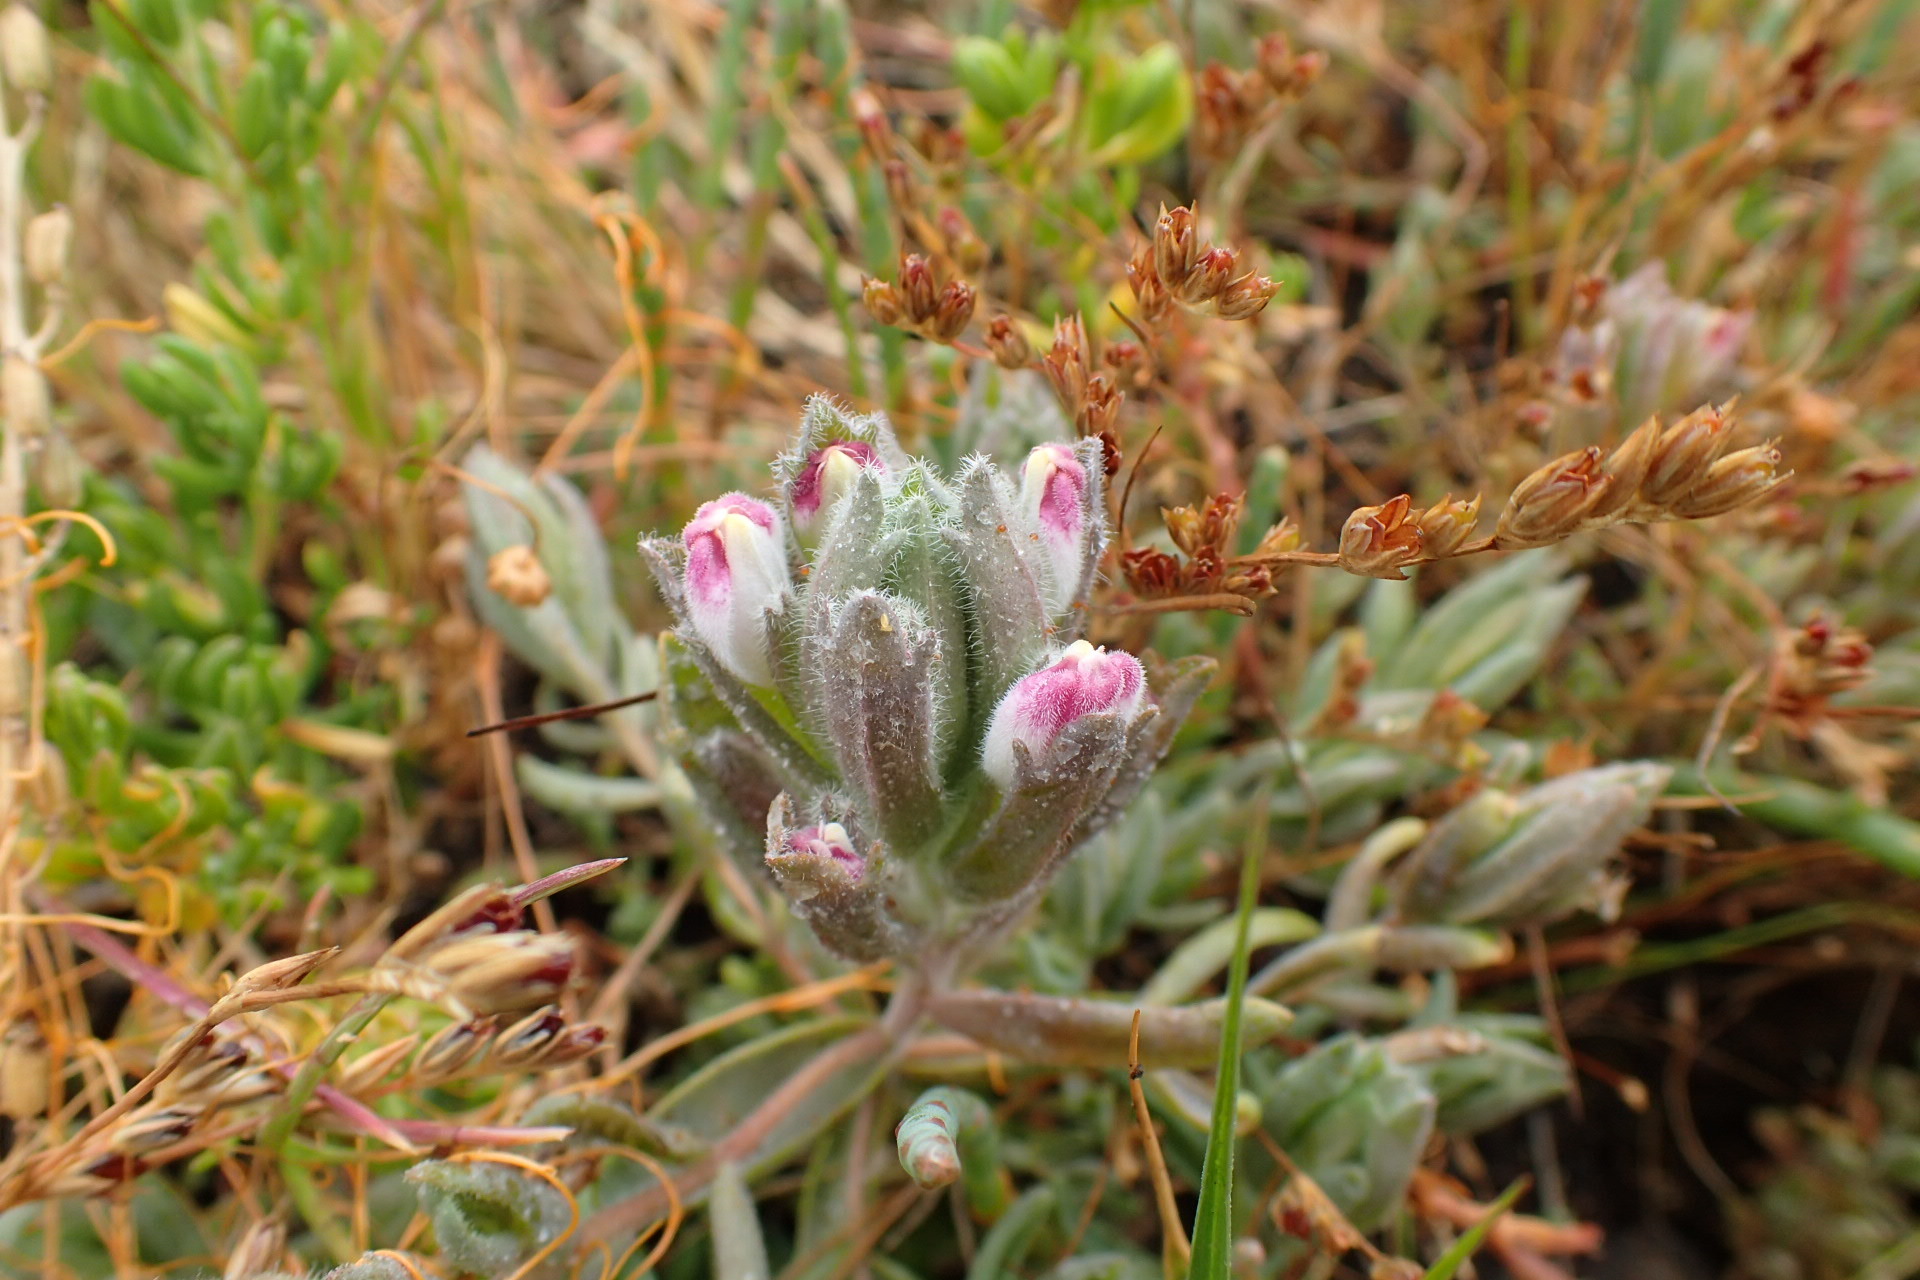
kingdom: Plantae
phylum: Tracheophyta
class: Magnoliopsida
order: Lamiales
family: Orobanchaceae
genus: Chloropyron
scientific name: Chloropyron maritimum
